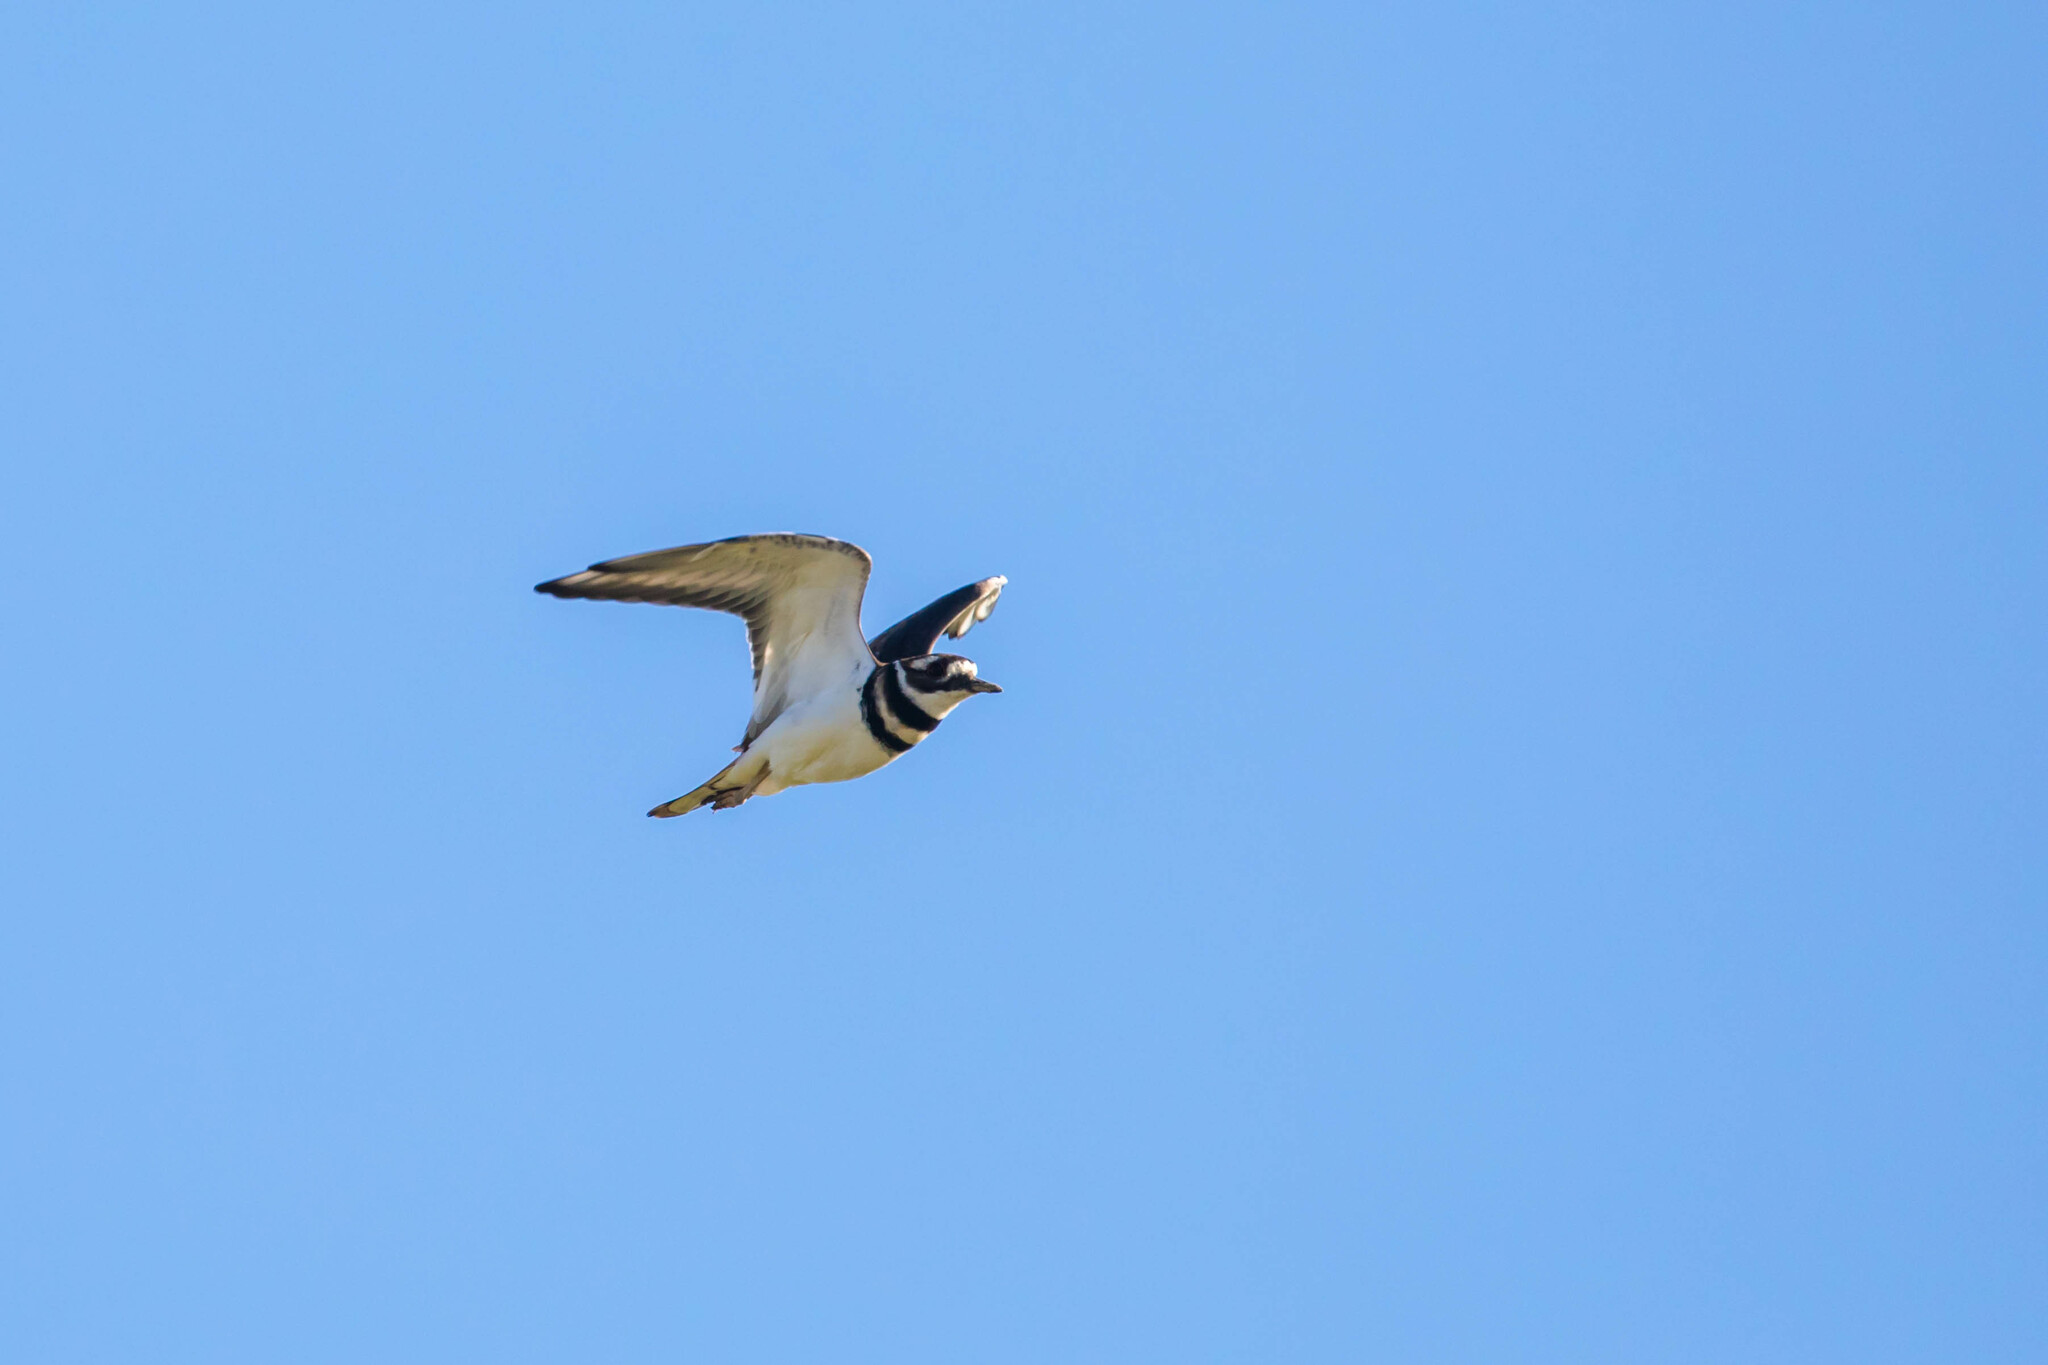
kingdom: Animalia
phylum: Chordata
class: Aves
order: Charadriiformes
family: Charadriidae
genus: Charadrius
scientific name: Charadrius vociferus
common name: Killdeer
